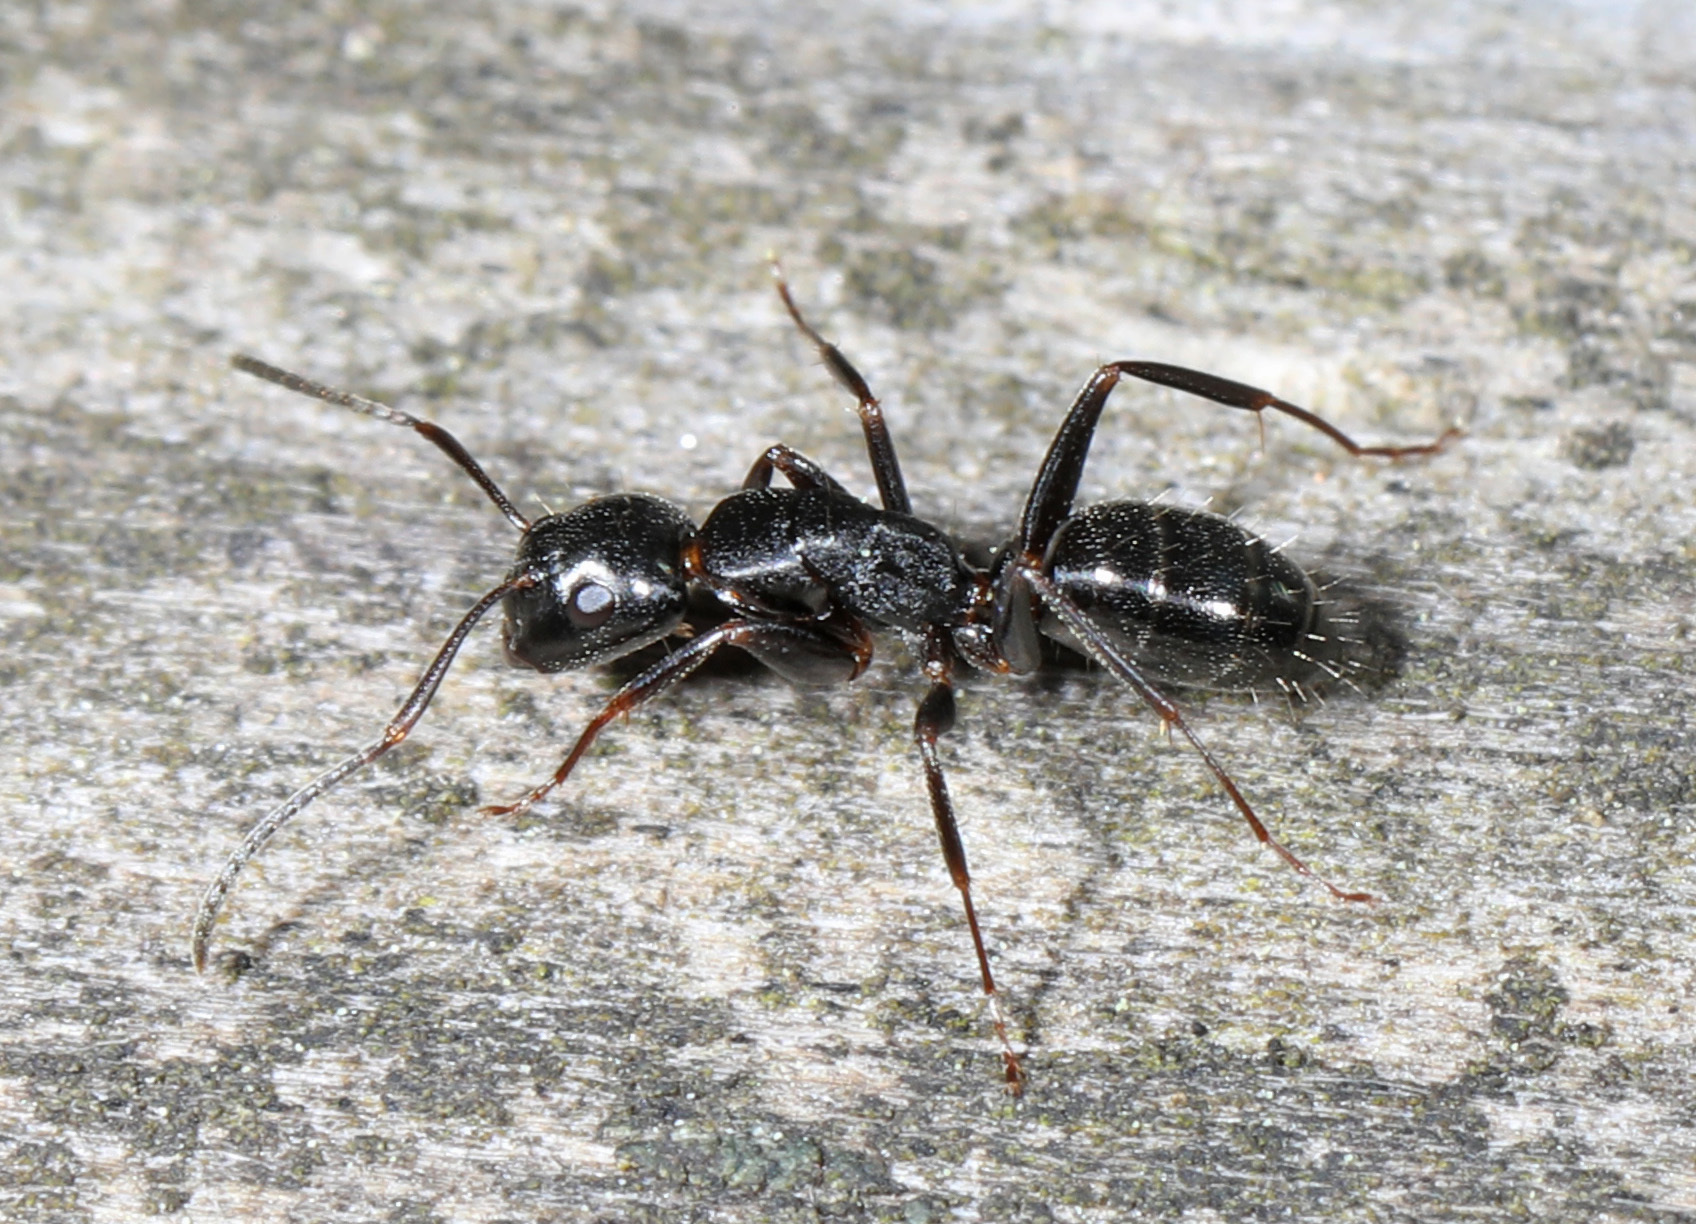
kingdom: Animalia
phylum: Arthropoda
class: Insecta
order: Hymenoptera
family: Formicidae
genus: Camponotus
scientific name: Camponotus nearcticus
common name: Smaller carpenter ant
